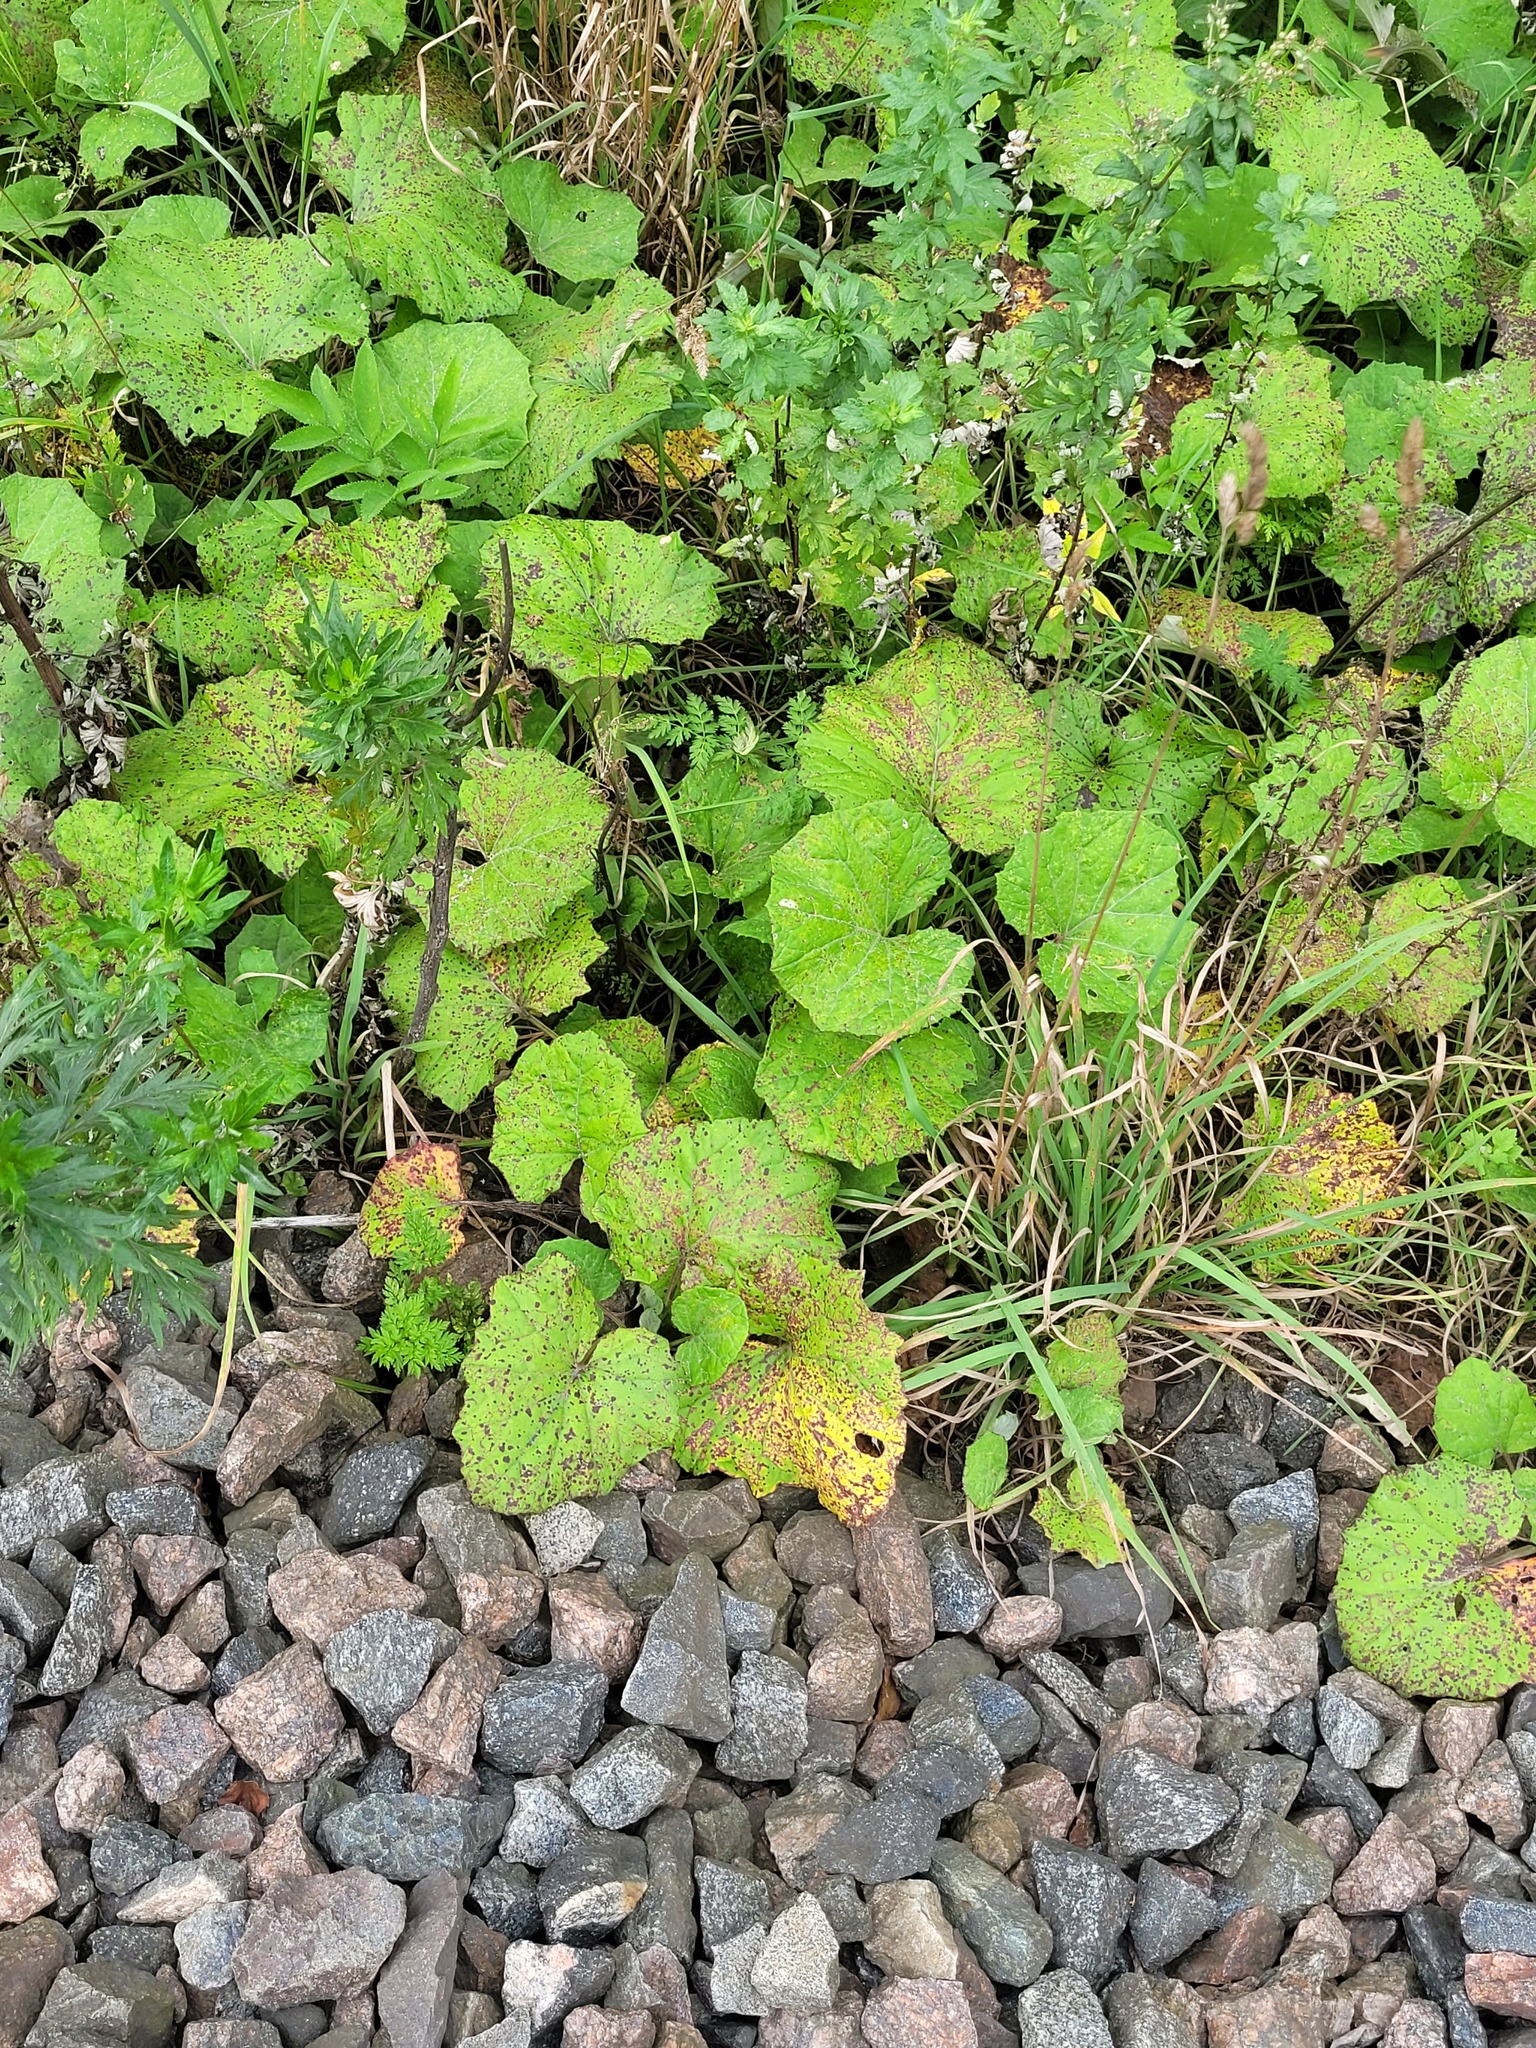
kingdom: Plantae
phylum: Tracheophyta
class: Magnoliopsida
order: Asterales
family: Asteraceae
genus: Tussilago
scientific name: Tussilago farfara
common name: Coltsfoot
